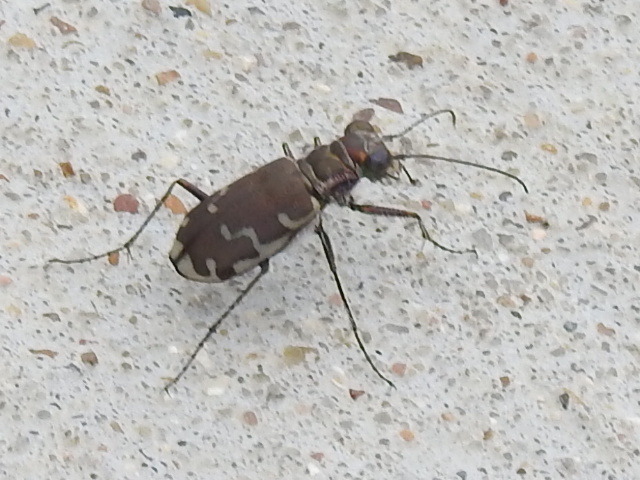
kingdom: Animalia
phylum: Arthropoda
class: Insecta
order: Coleoptera
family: Carabidae
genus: Cicindela
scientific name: Cicindela repanda
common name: Bronzed tiger beetle
